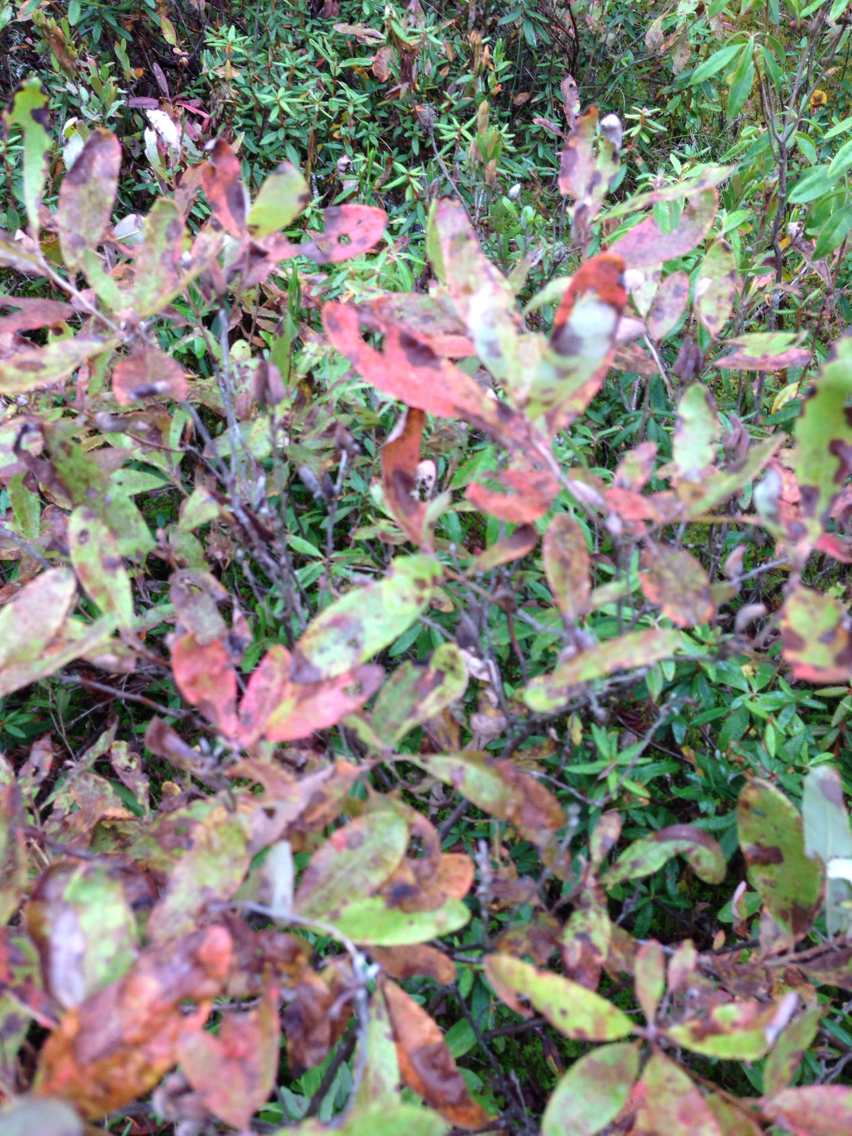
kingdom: Plantae
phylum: Tracheophyta
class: Magnoliopsida
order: Ericales
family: Ericaceae
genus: Kalmia
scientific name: Kalmia angustifolia
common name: Sheep-laurel
